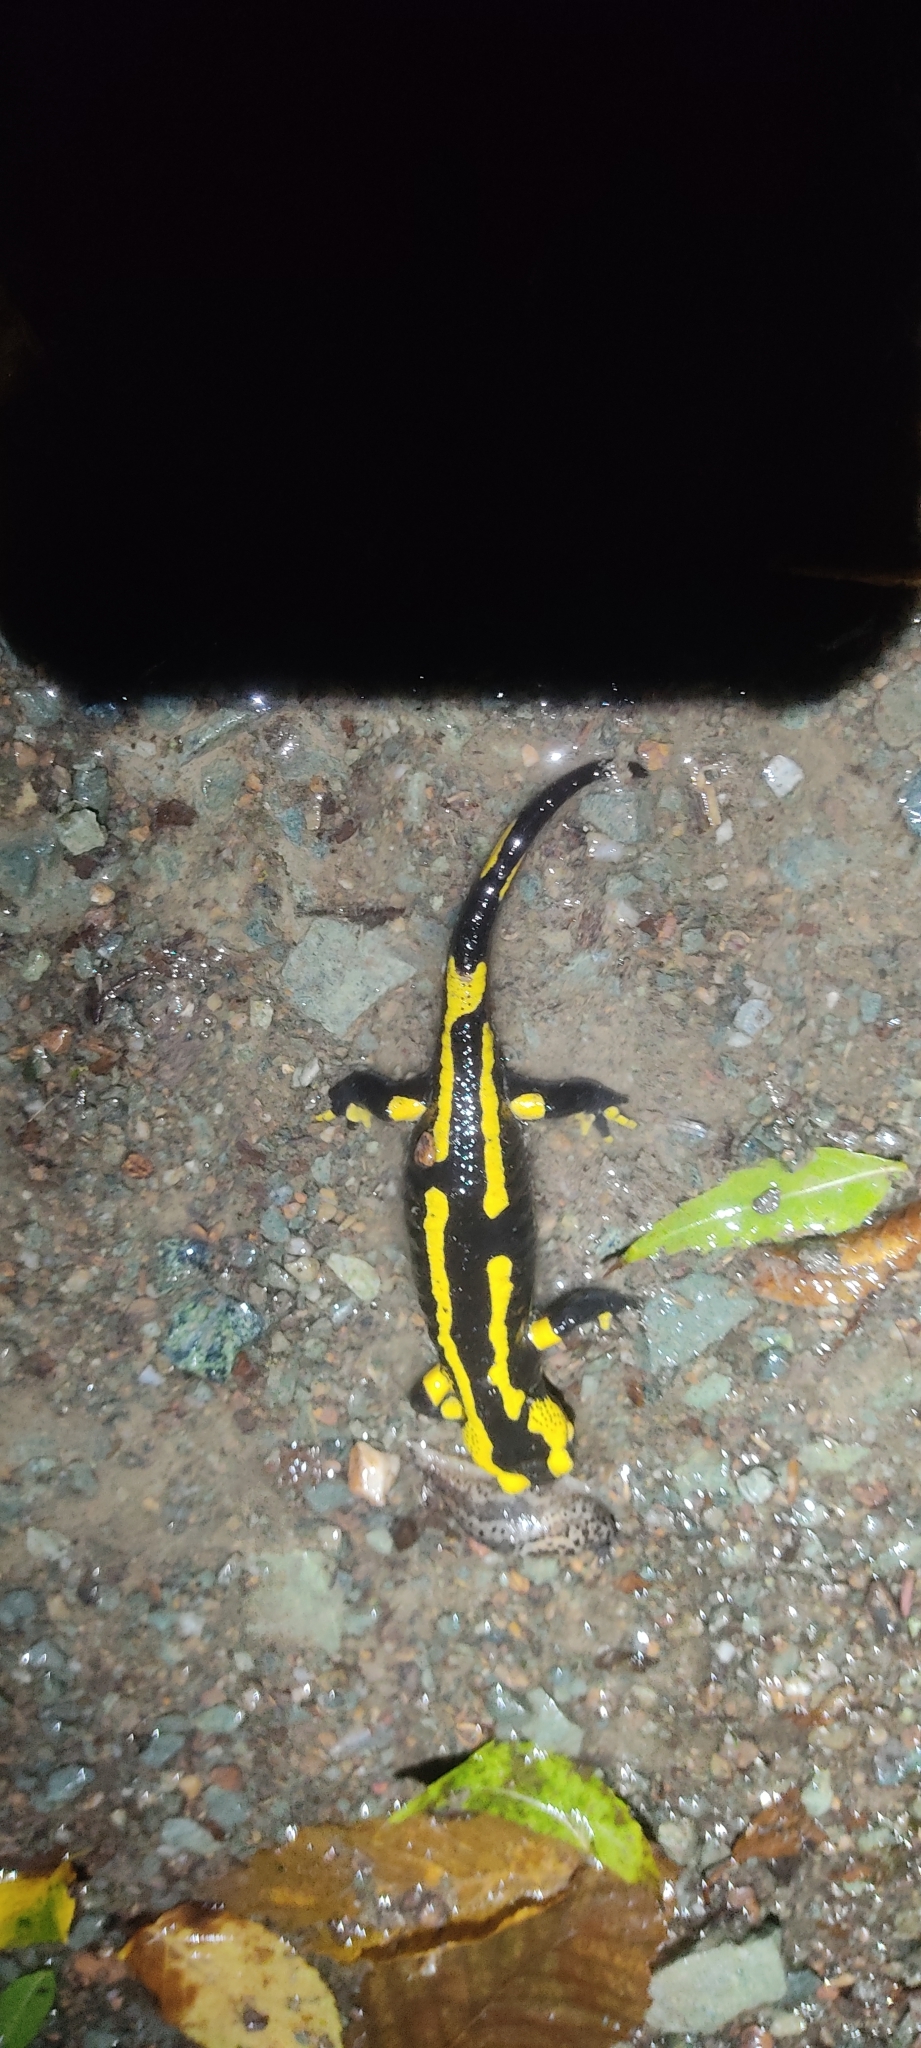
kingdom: Animalia
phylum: Chordata
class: Amphibia
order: Caudata
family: Salamandridae
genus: Salamandra
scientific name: Salamandra salamandra
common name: Fire salamander
